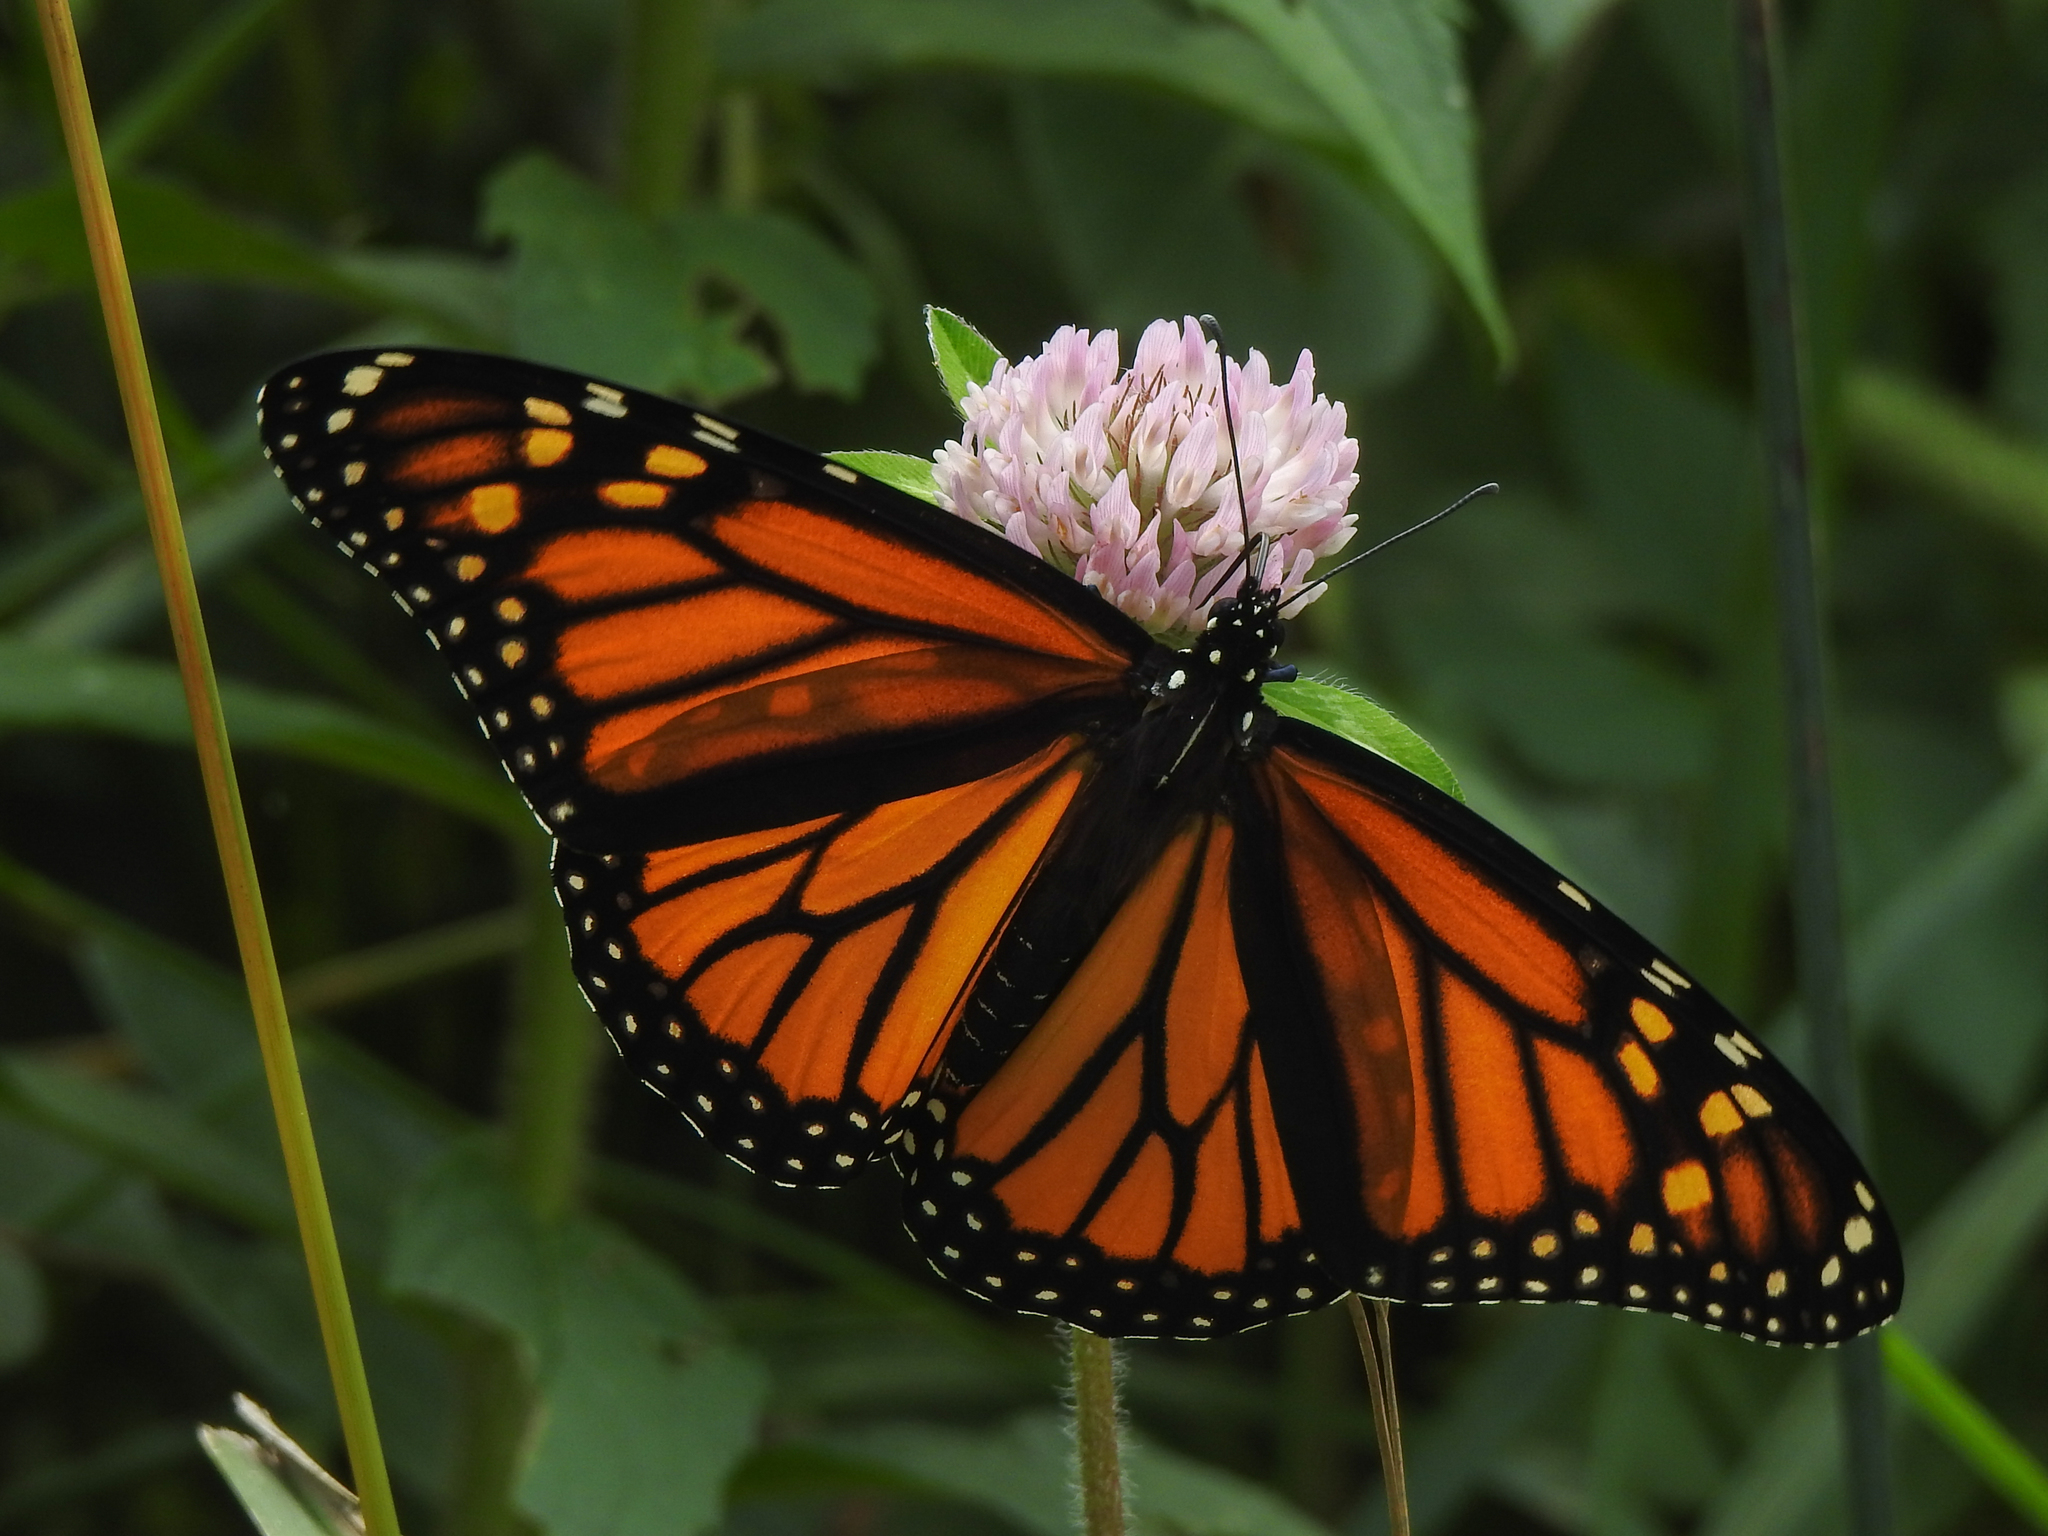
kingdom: Animalia
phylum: Arthropoda
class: Insecta
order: Lepidoptera
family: Nymphalidae
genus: Danaus
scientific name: Danaus plexippus
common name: Monarch
